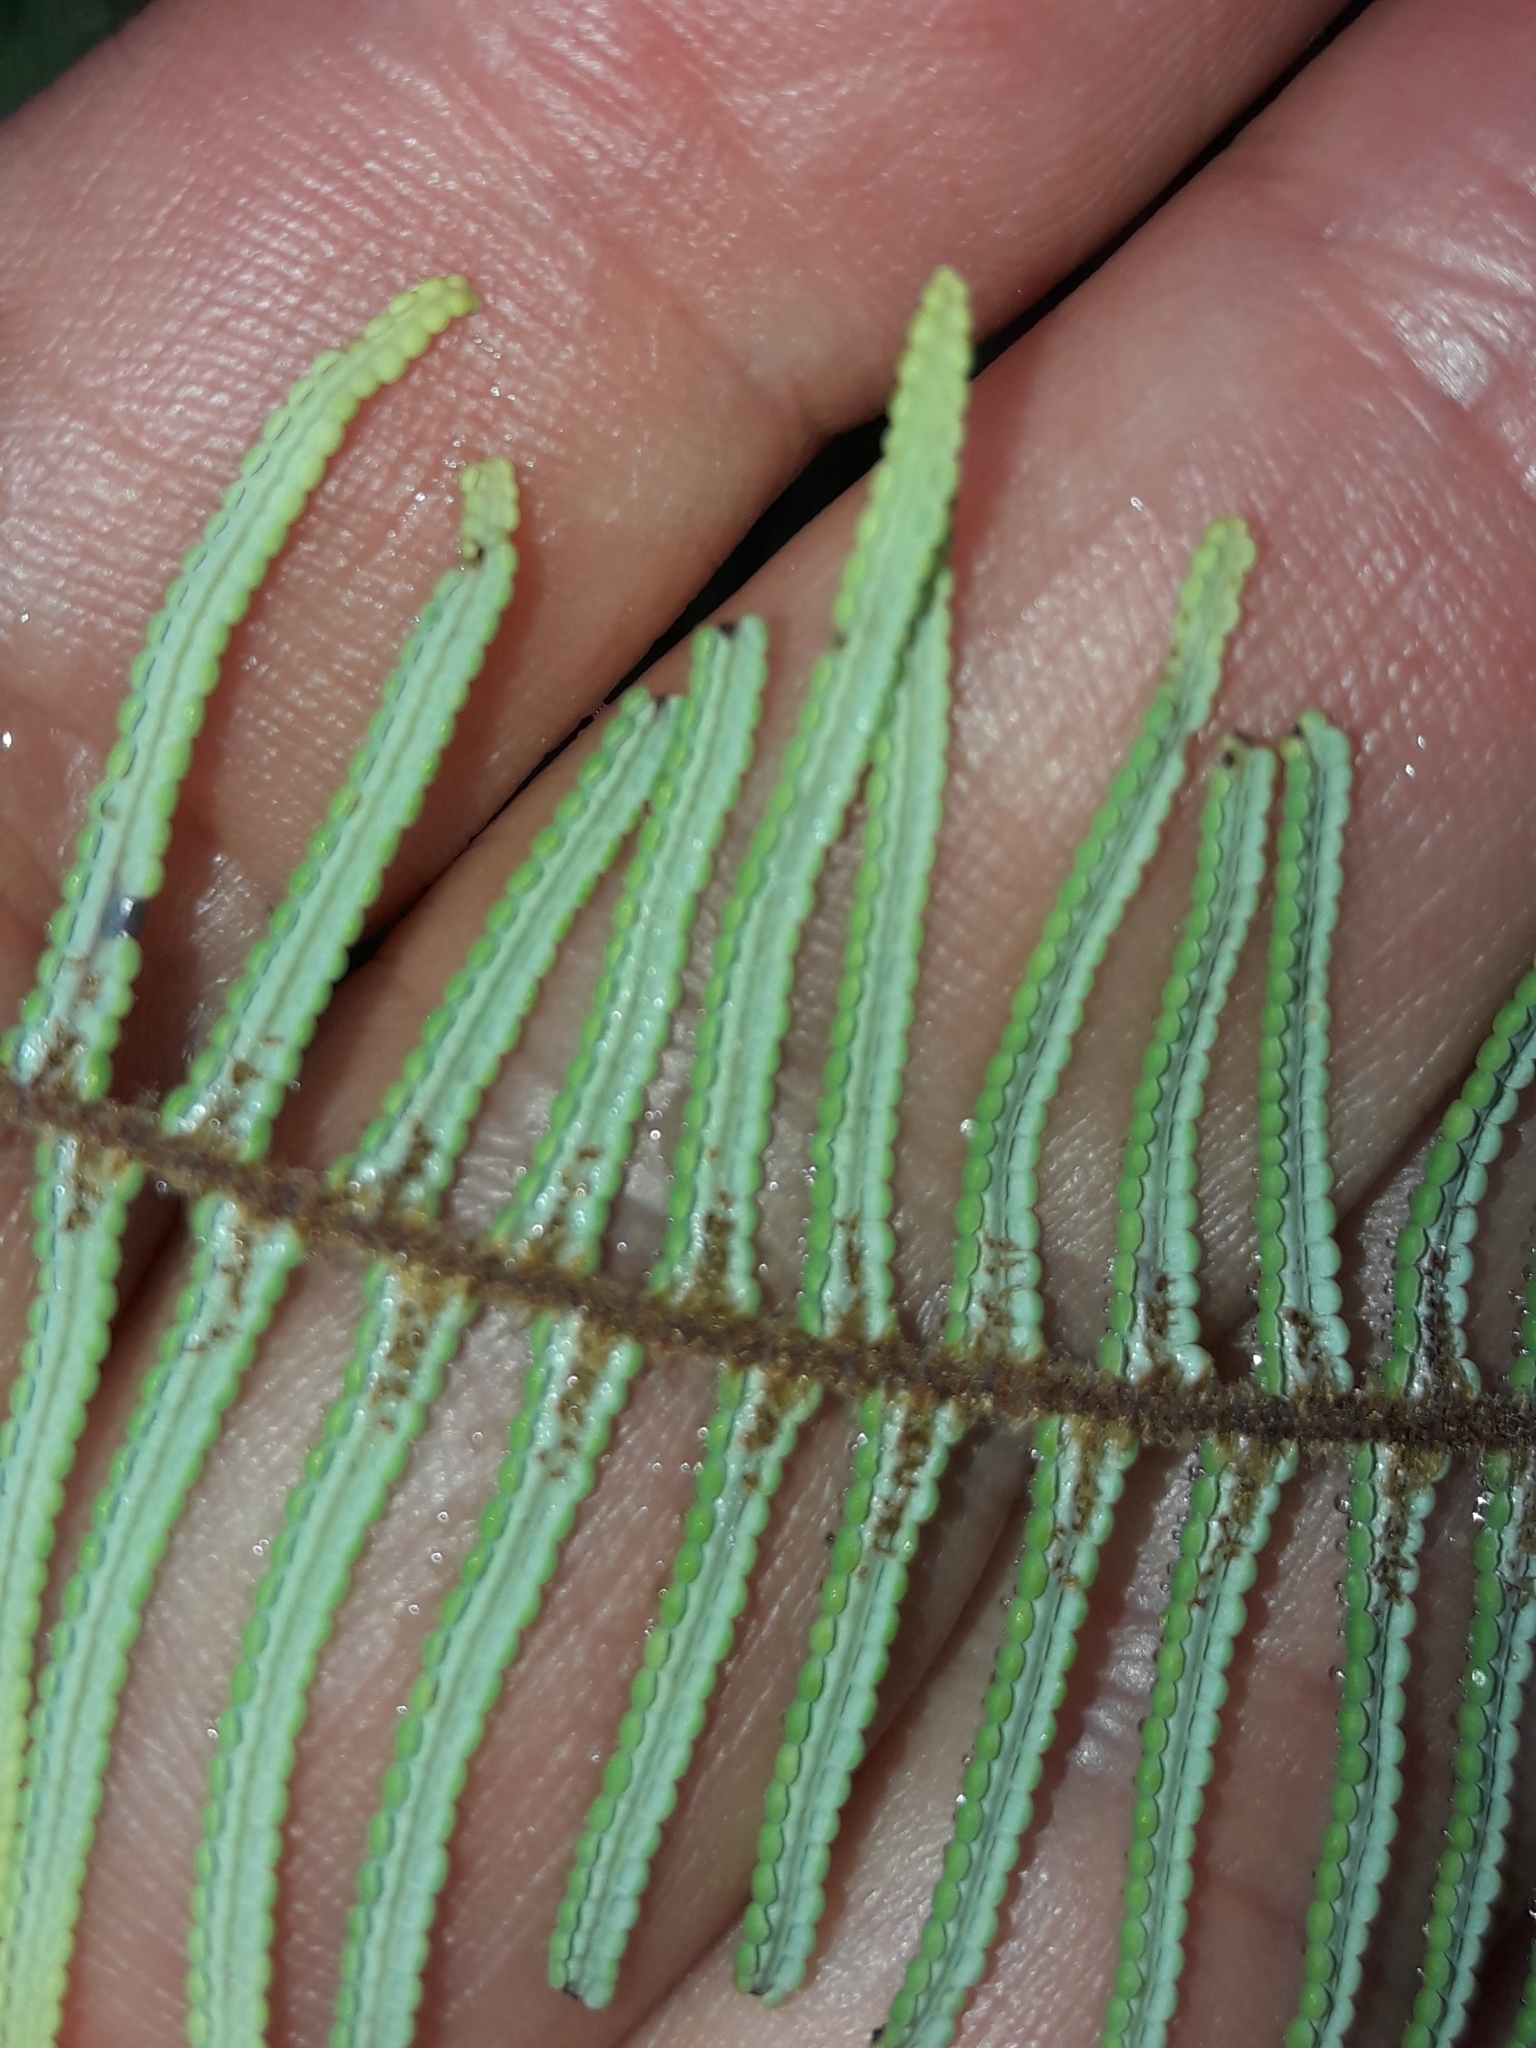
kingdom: Plantae
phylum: Tracheophyta
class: Polypodiopsida
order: Gleicheniales
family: Gleicheniaceae
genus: Gleichenia
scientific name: Gleichenia dicarpa
